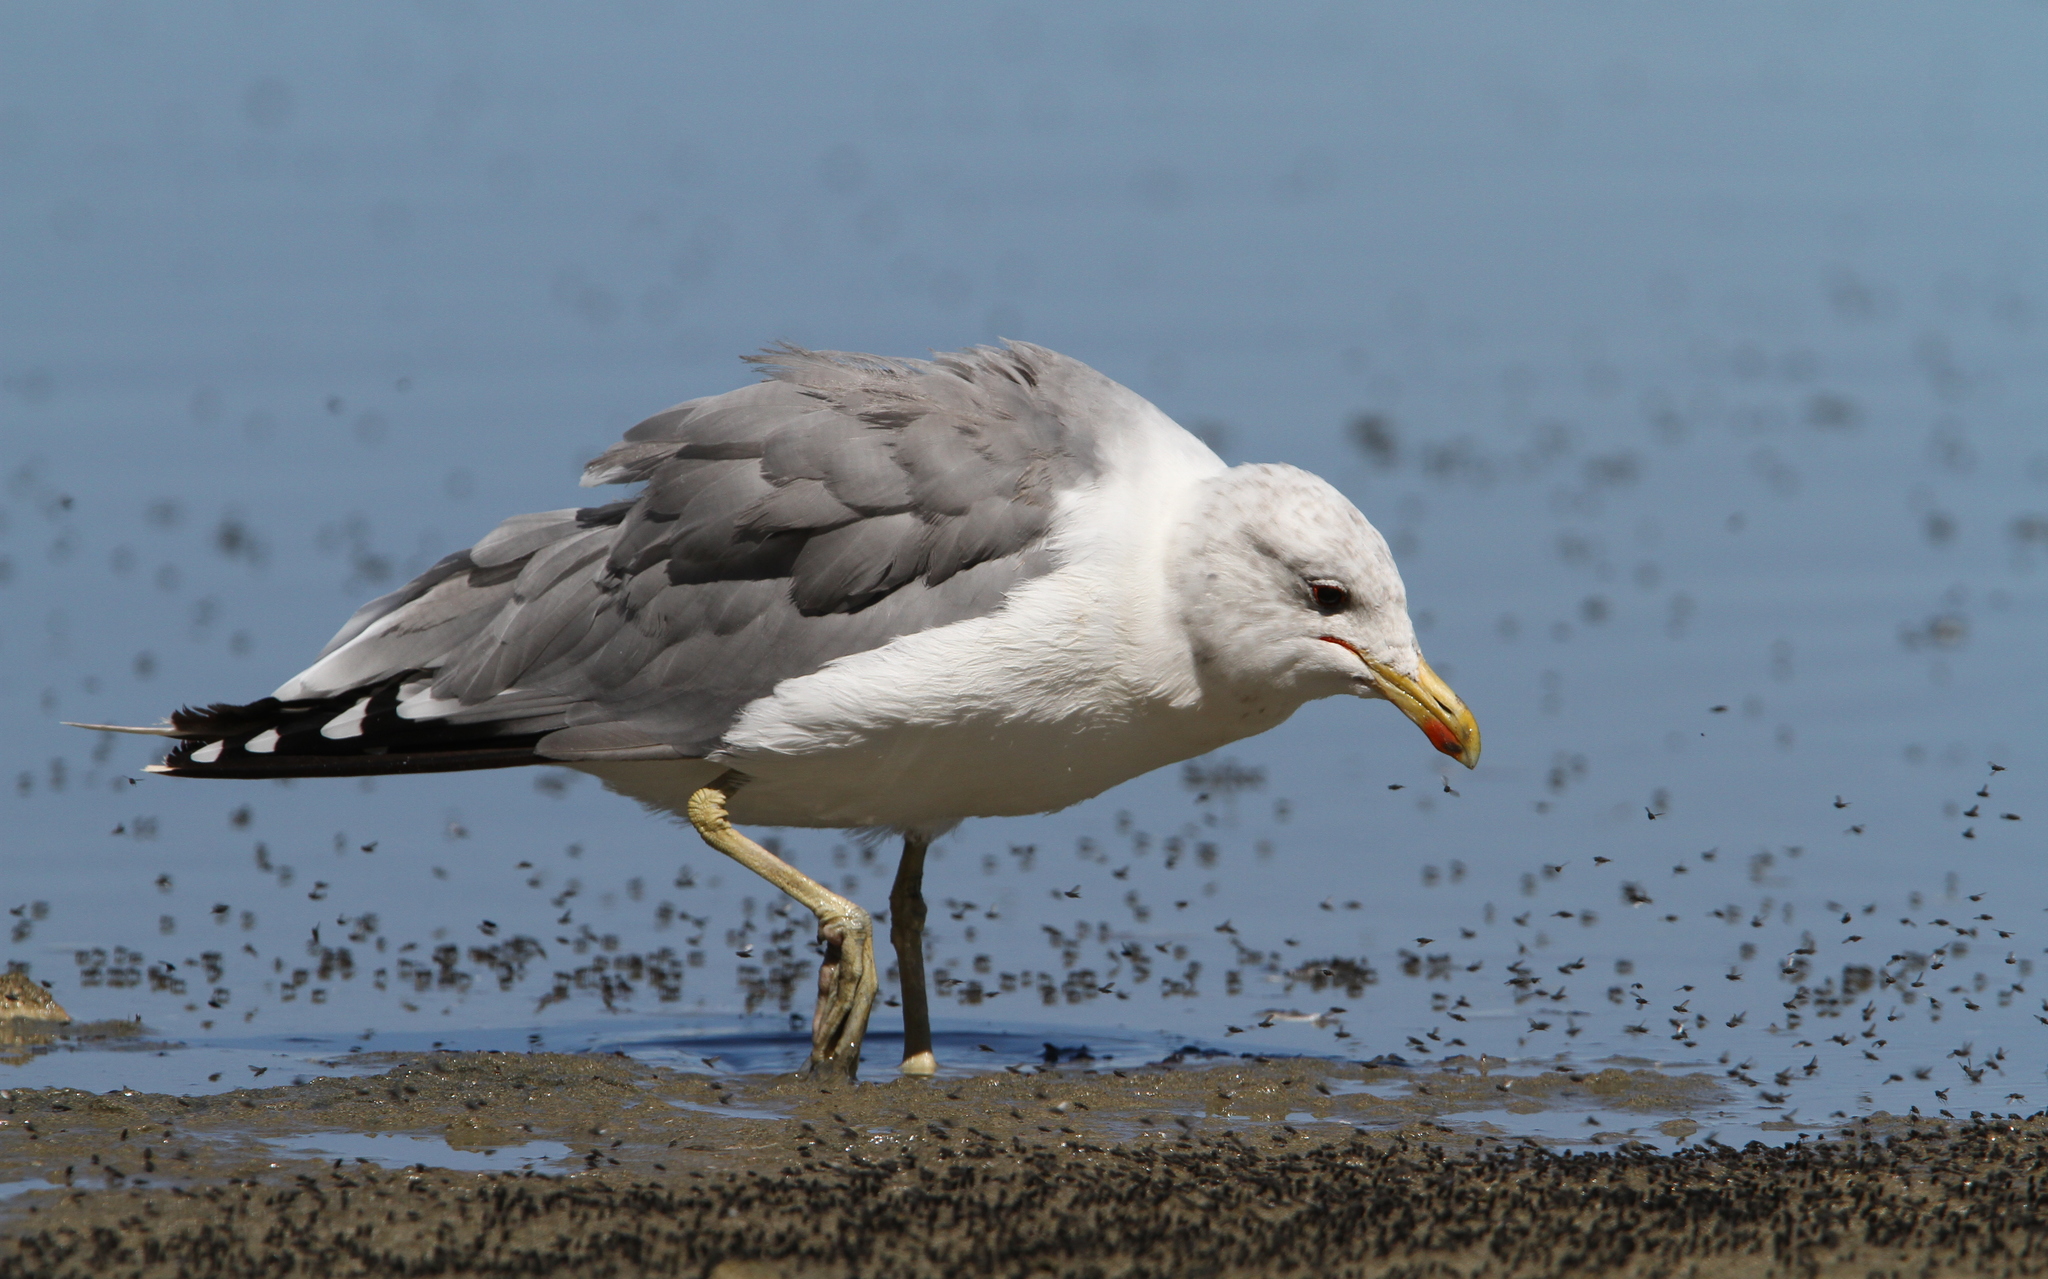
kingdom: Animalia
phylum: Chordata
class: Aves
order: Charadriiformes
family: Laridae
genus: Larus
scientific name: Larus californicus
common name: California gull
